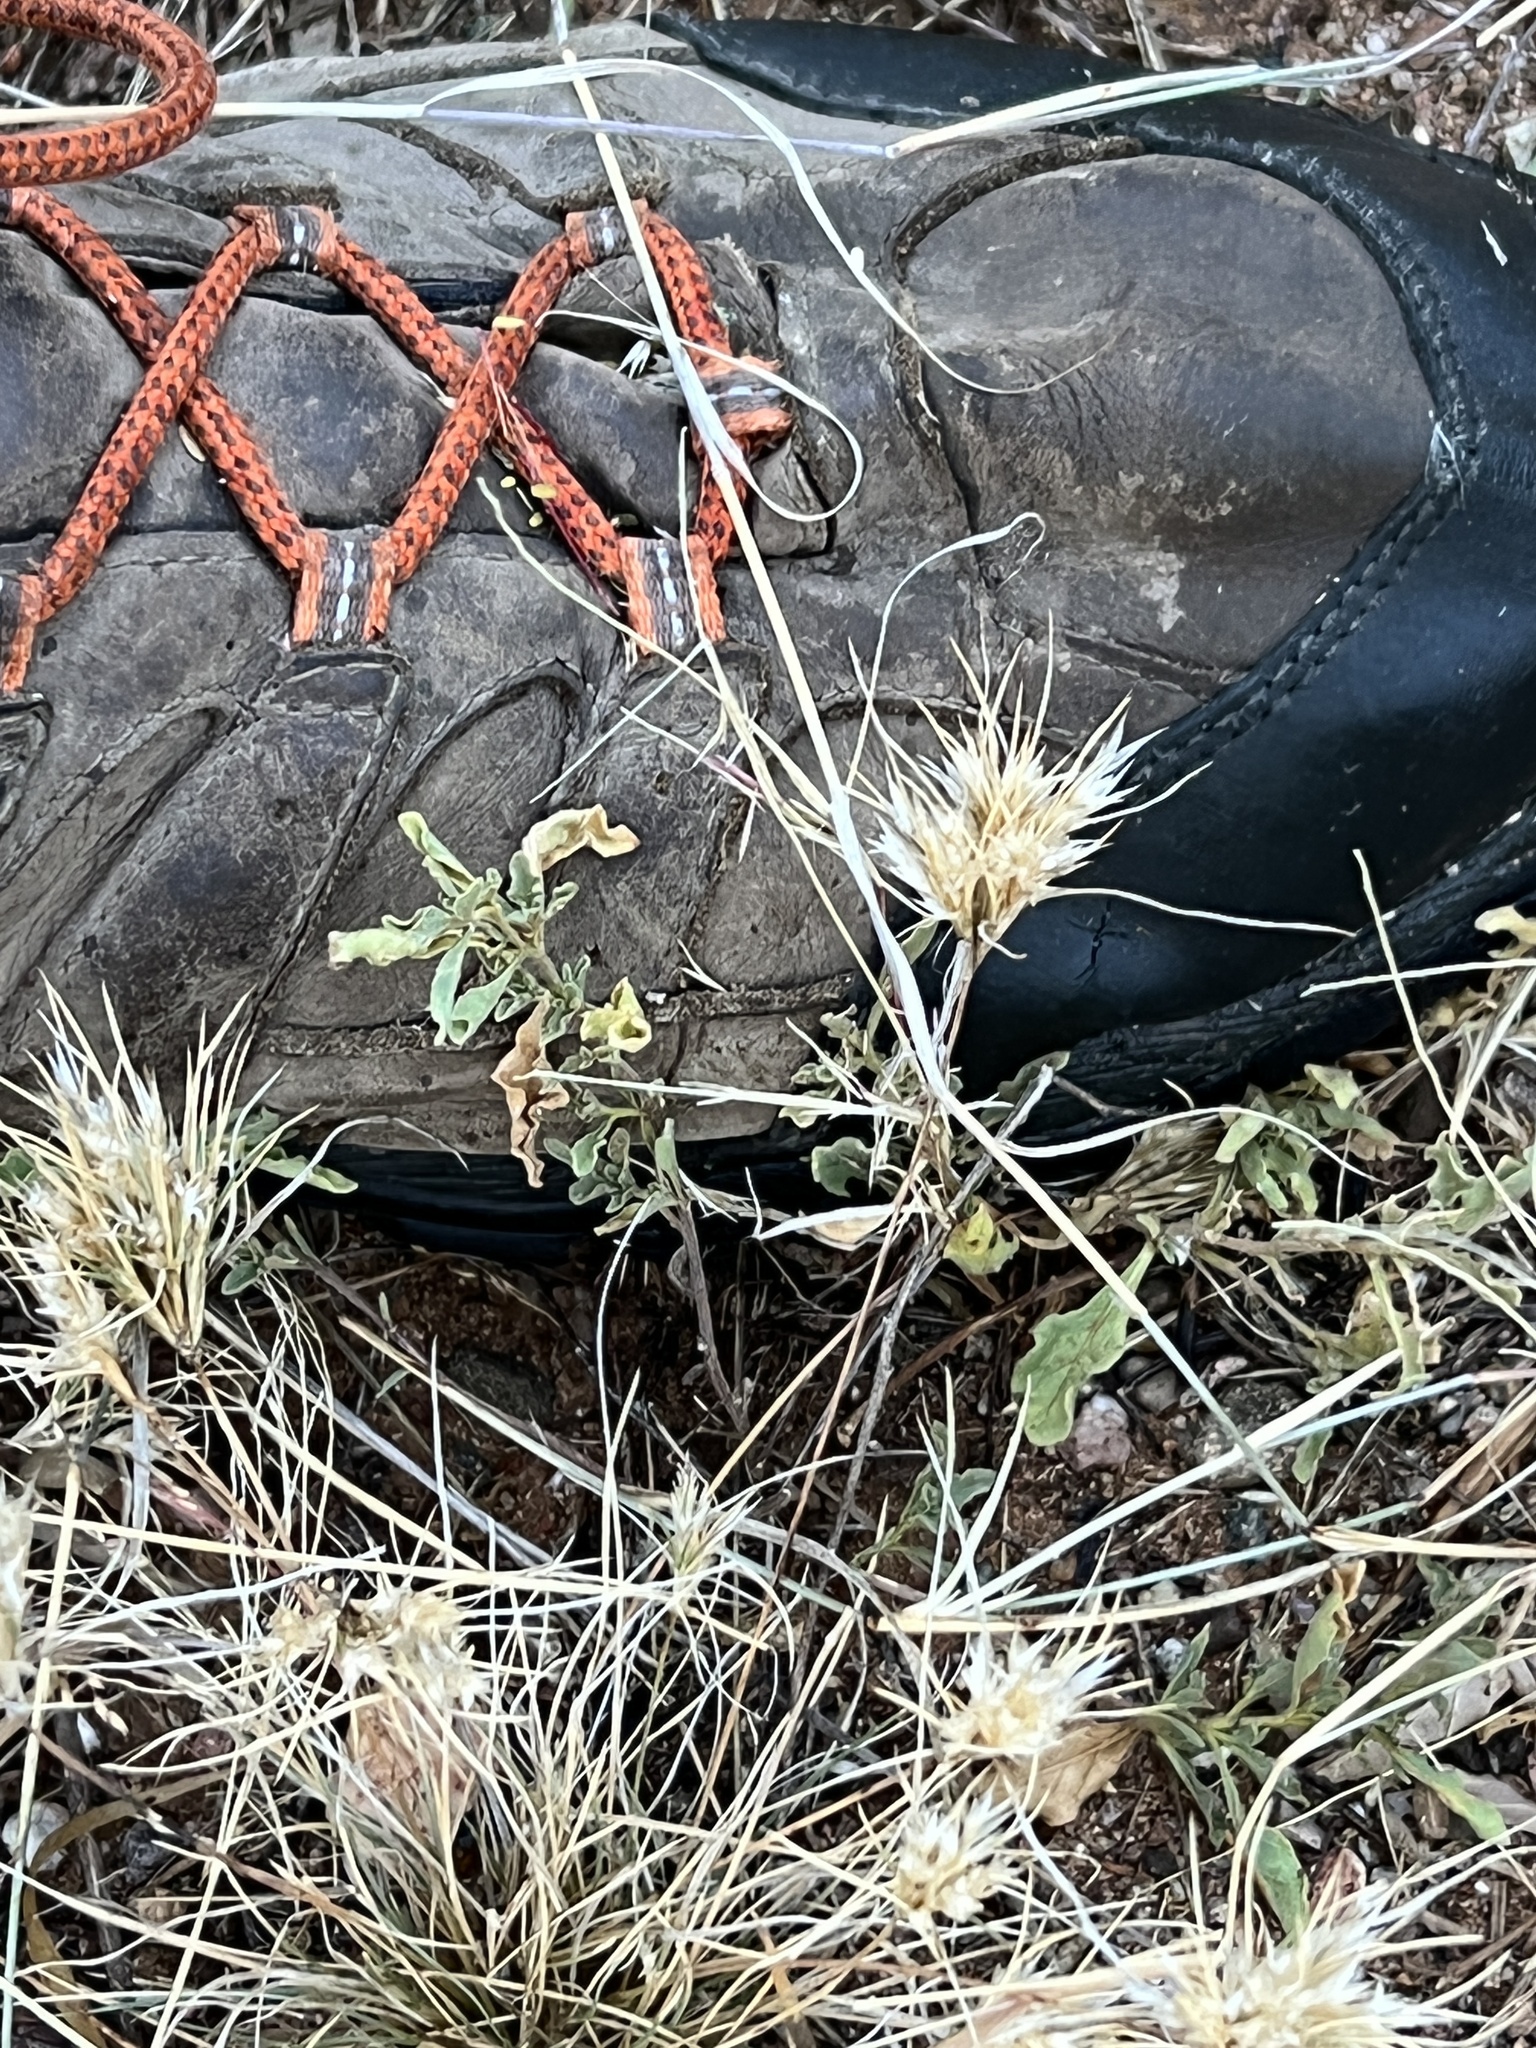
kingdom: Plantae
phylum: Tracheophyta
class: Liliopsida
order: Poales
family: Poaceae
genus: Dasyochloa
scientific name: Dasyochloa pulchella
